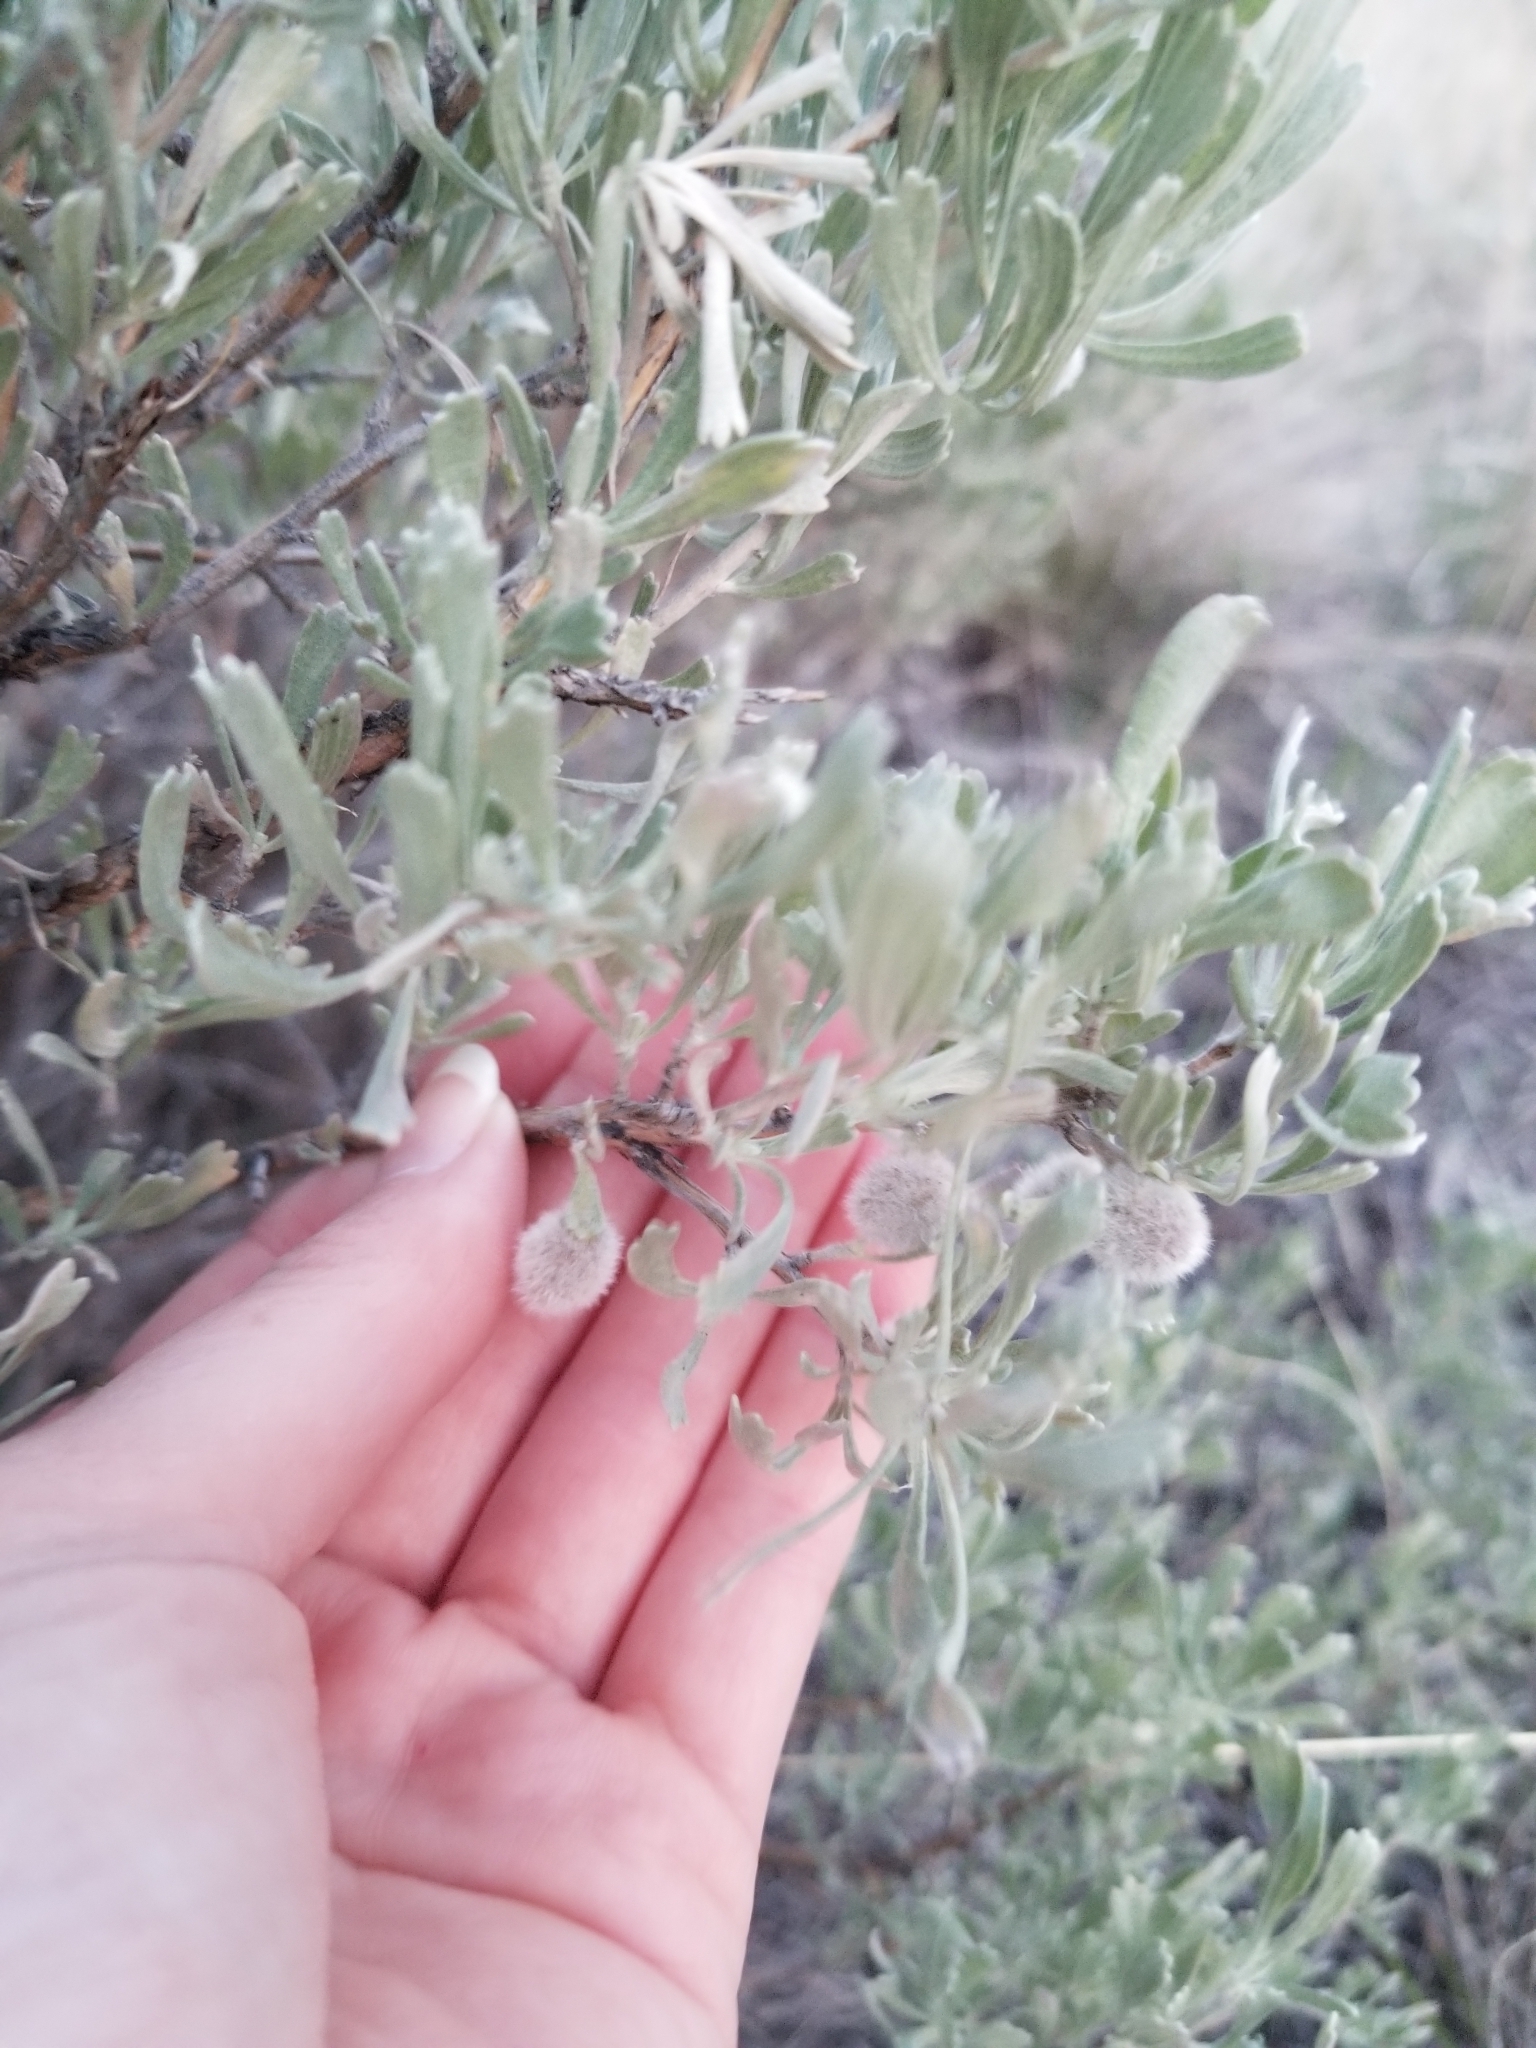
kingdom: Animalia
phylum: Arthropoda
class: Insecta
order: Diptera
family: Cecidomyiidae
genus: Rhopalomyia
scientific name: Rhopalomyia hirtipomum
